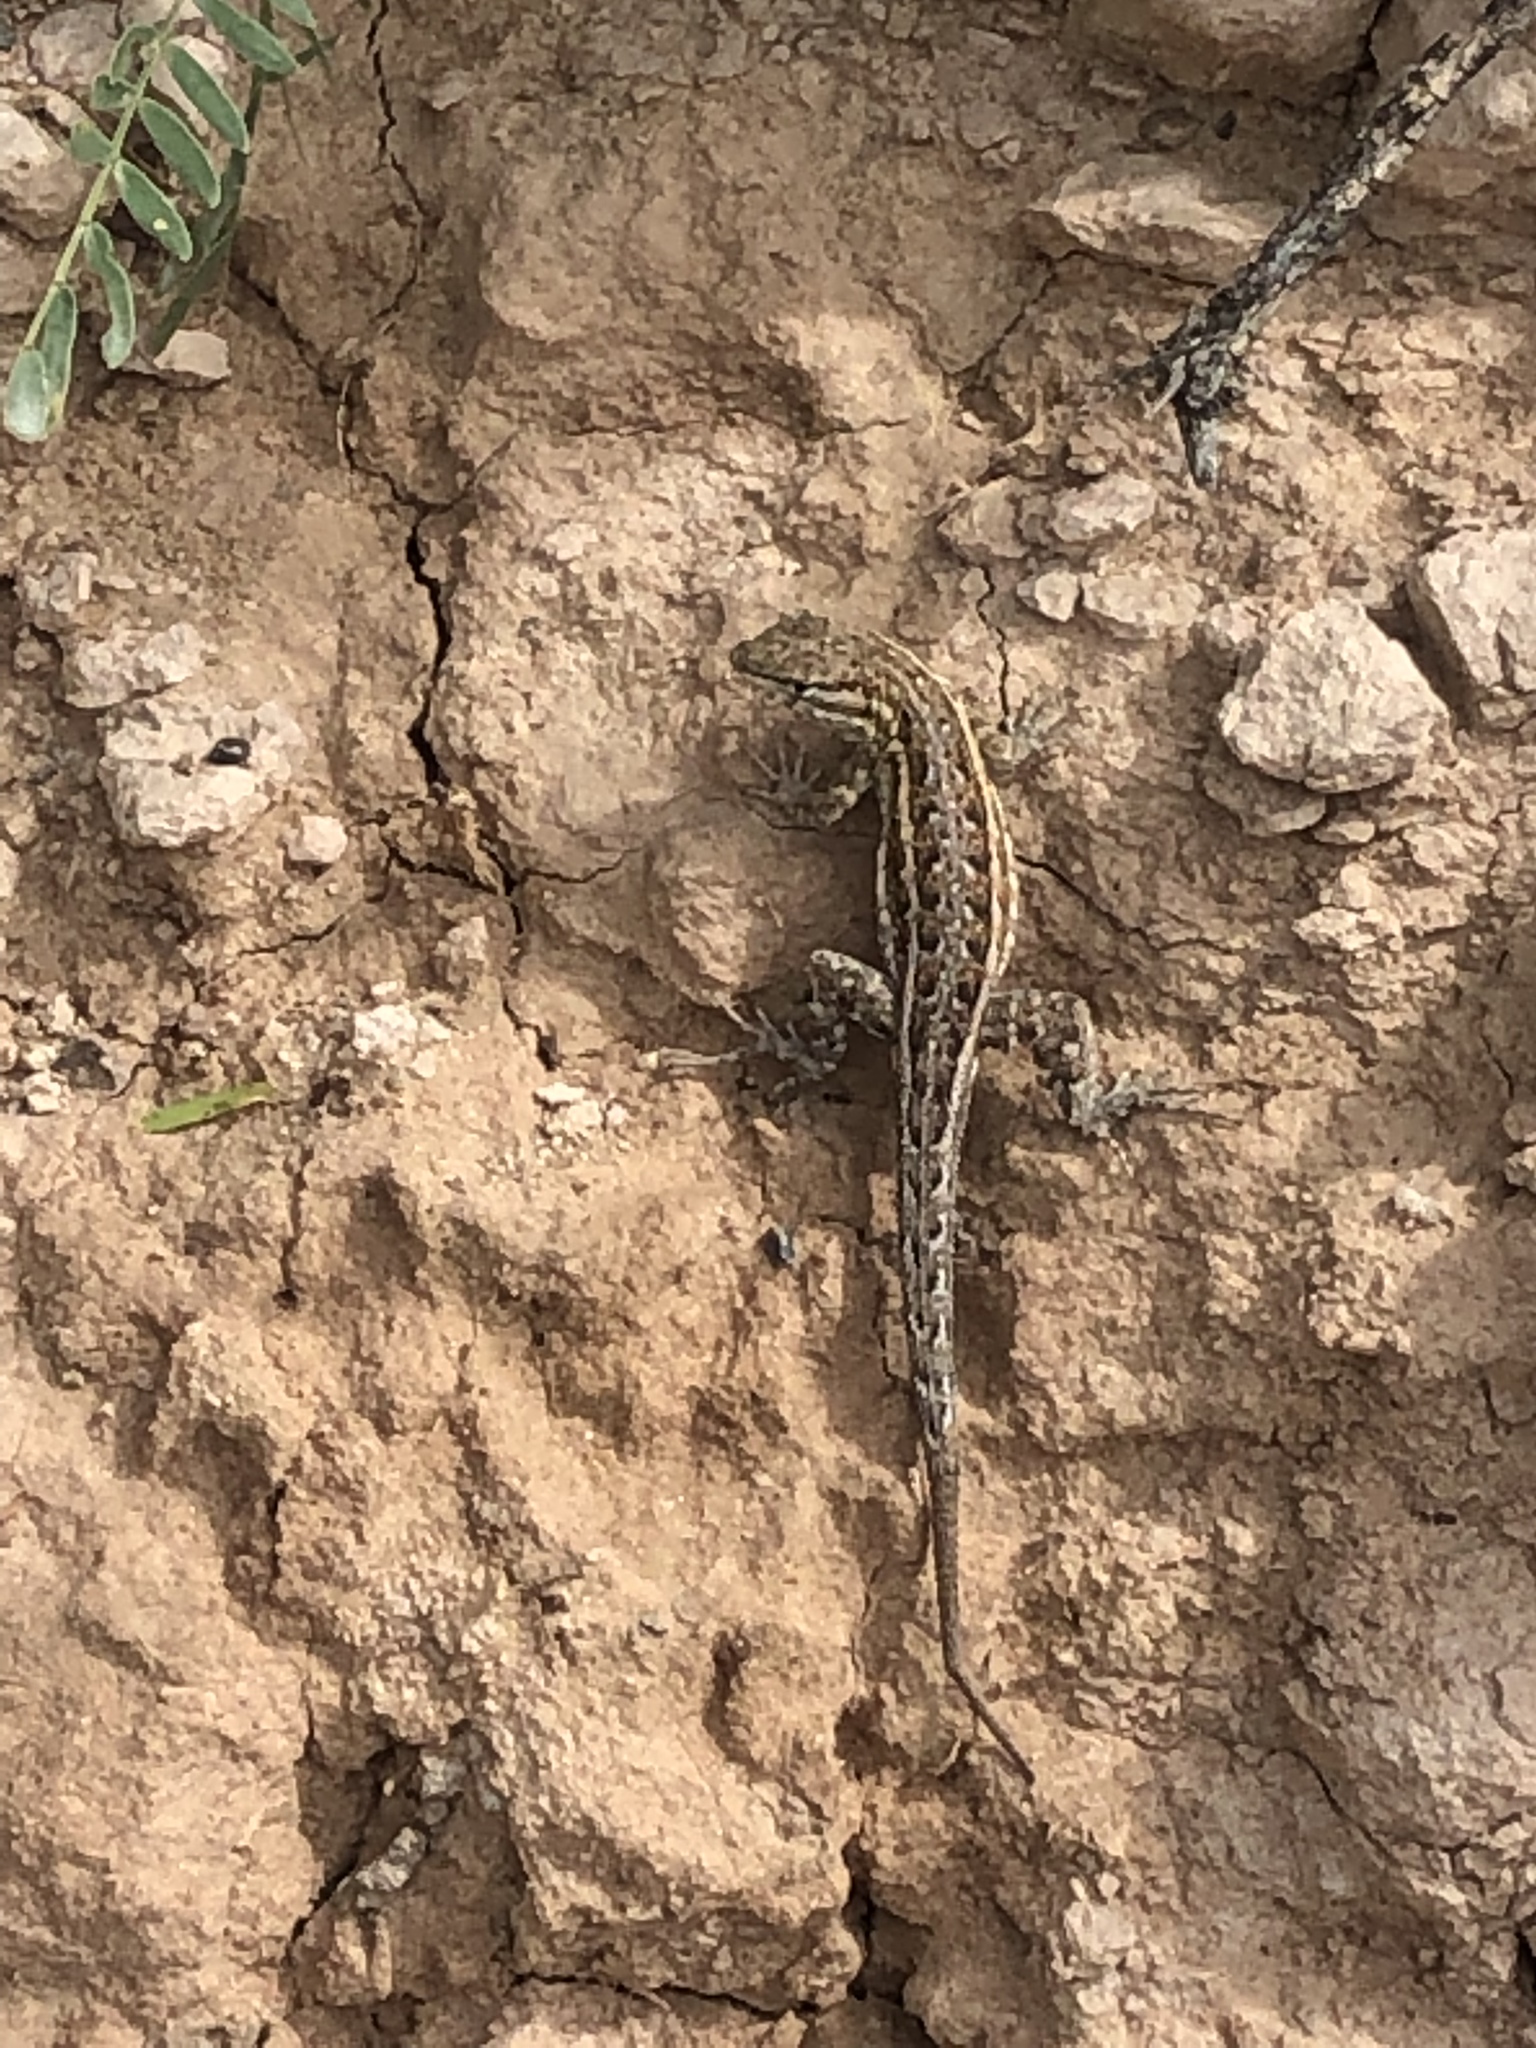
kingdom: Animalia
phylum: Chordata
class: Squamata
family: Phrynosomatidae
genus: Uta
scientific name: Uta stansburiana
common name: Side-blotched lizard
